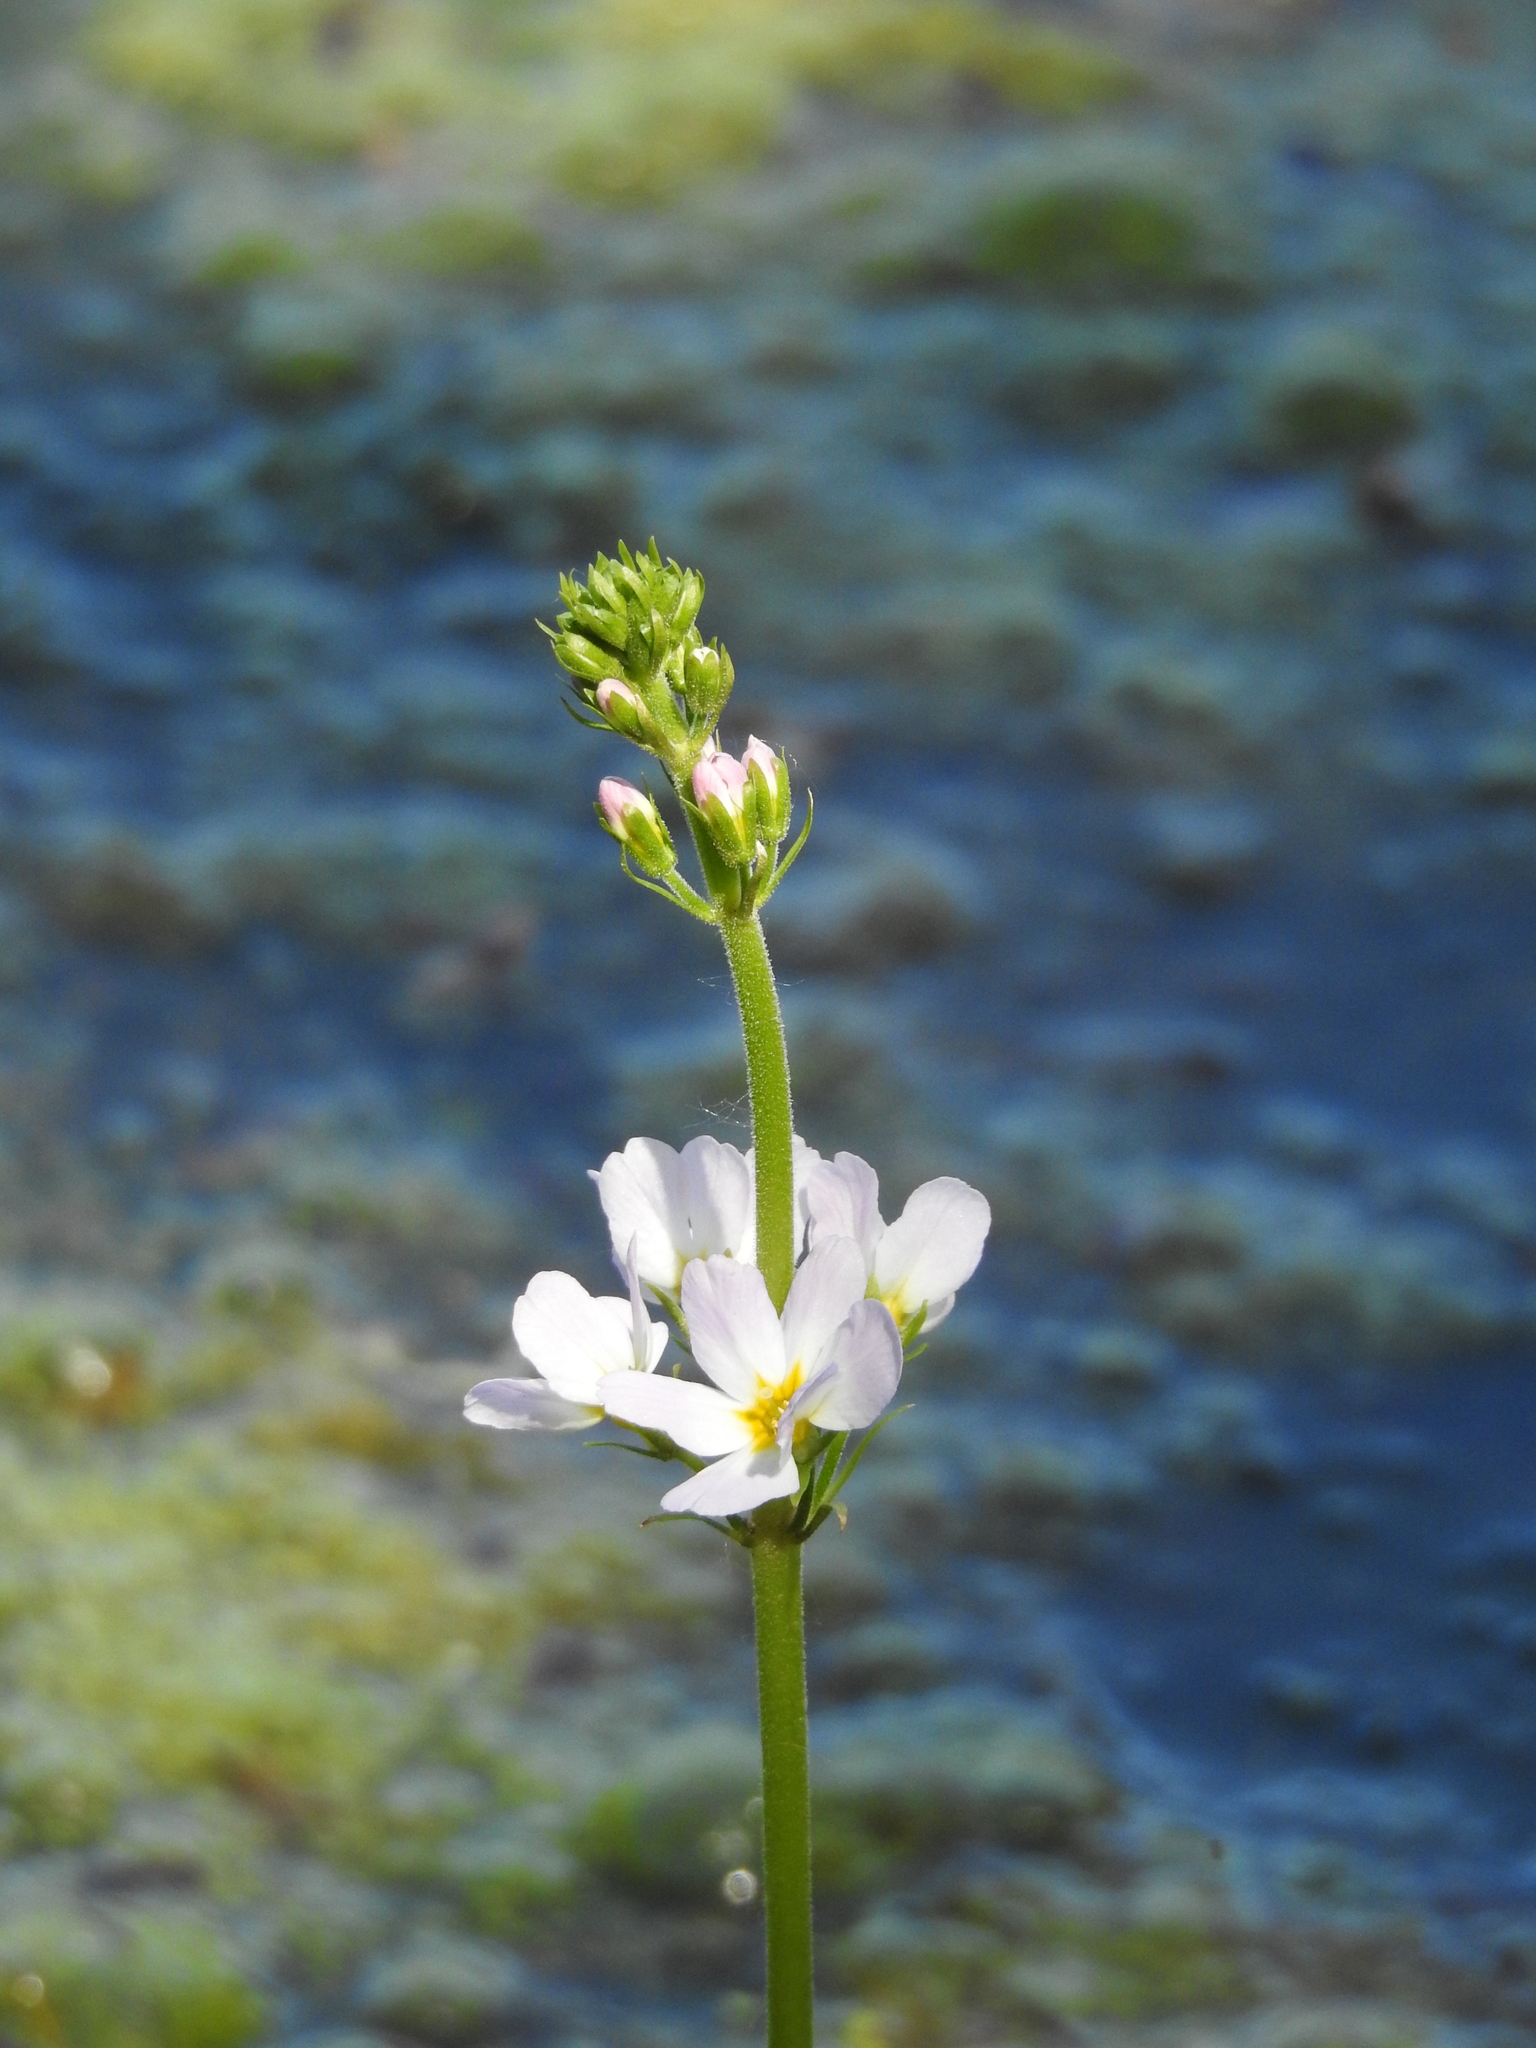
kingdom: Plantae
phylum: Tracheophyta
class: Magnoliopsida
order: Ericales
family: Primulaceae
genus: Hottonia
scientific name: Hottonia palustris
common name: Water-violet
